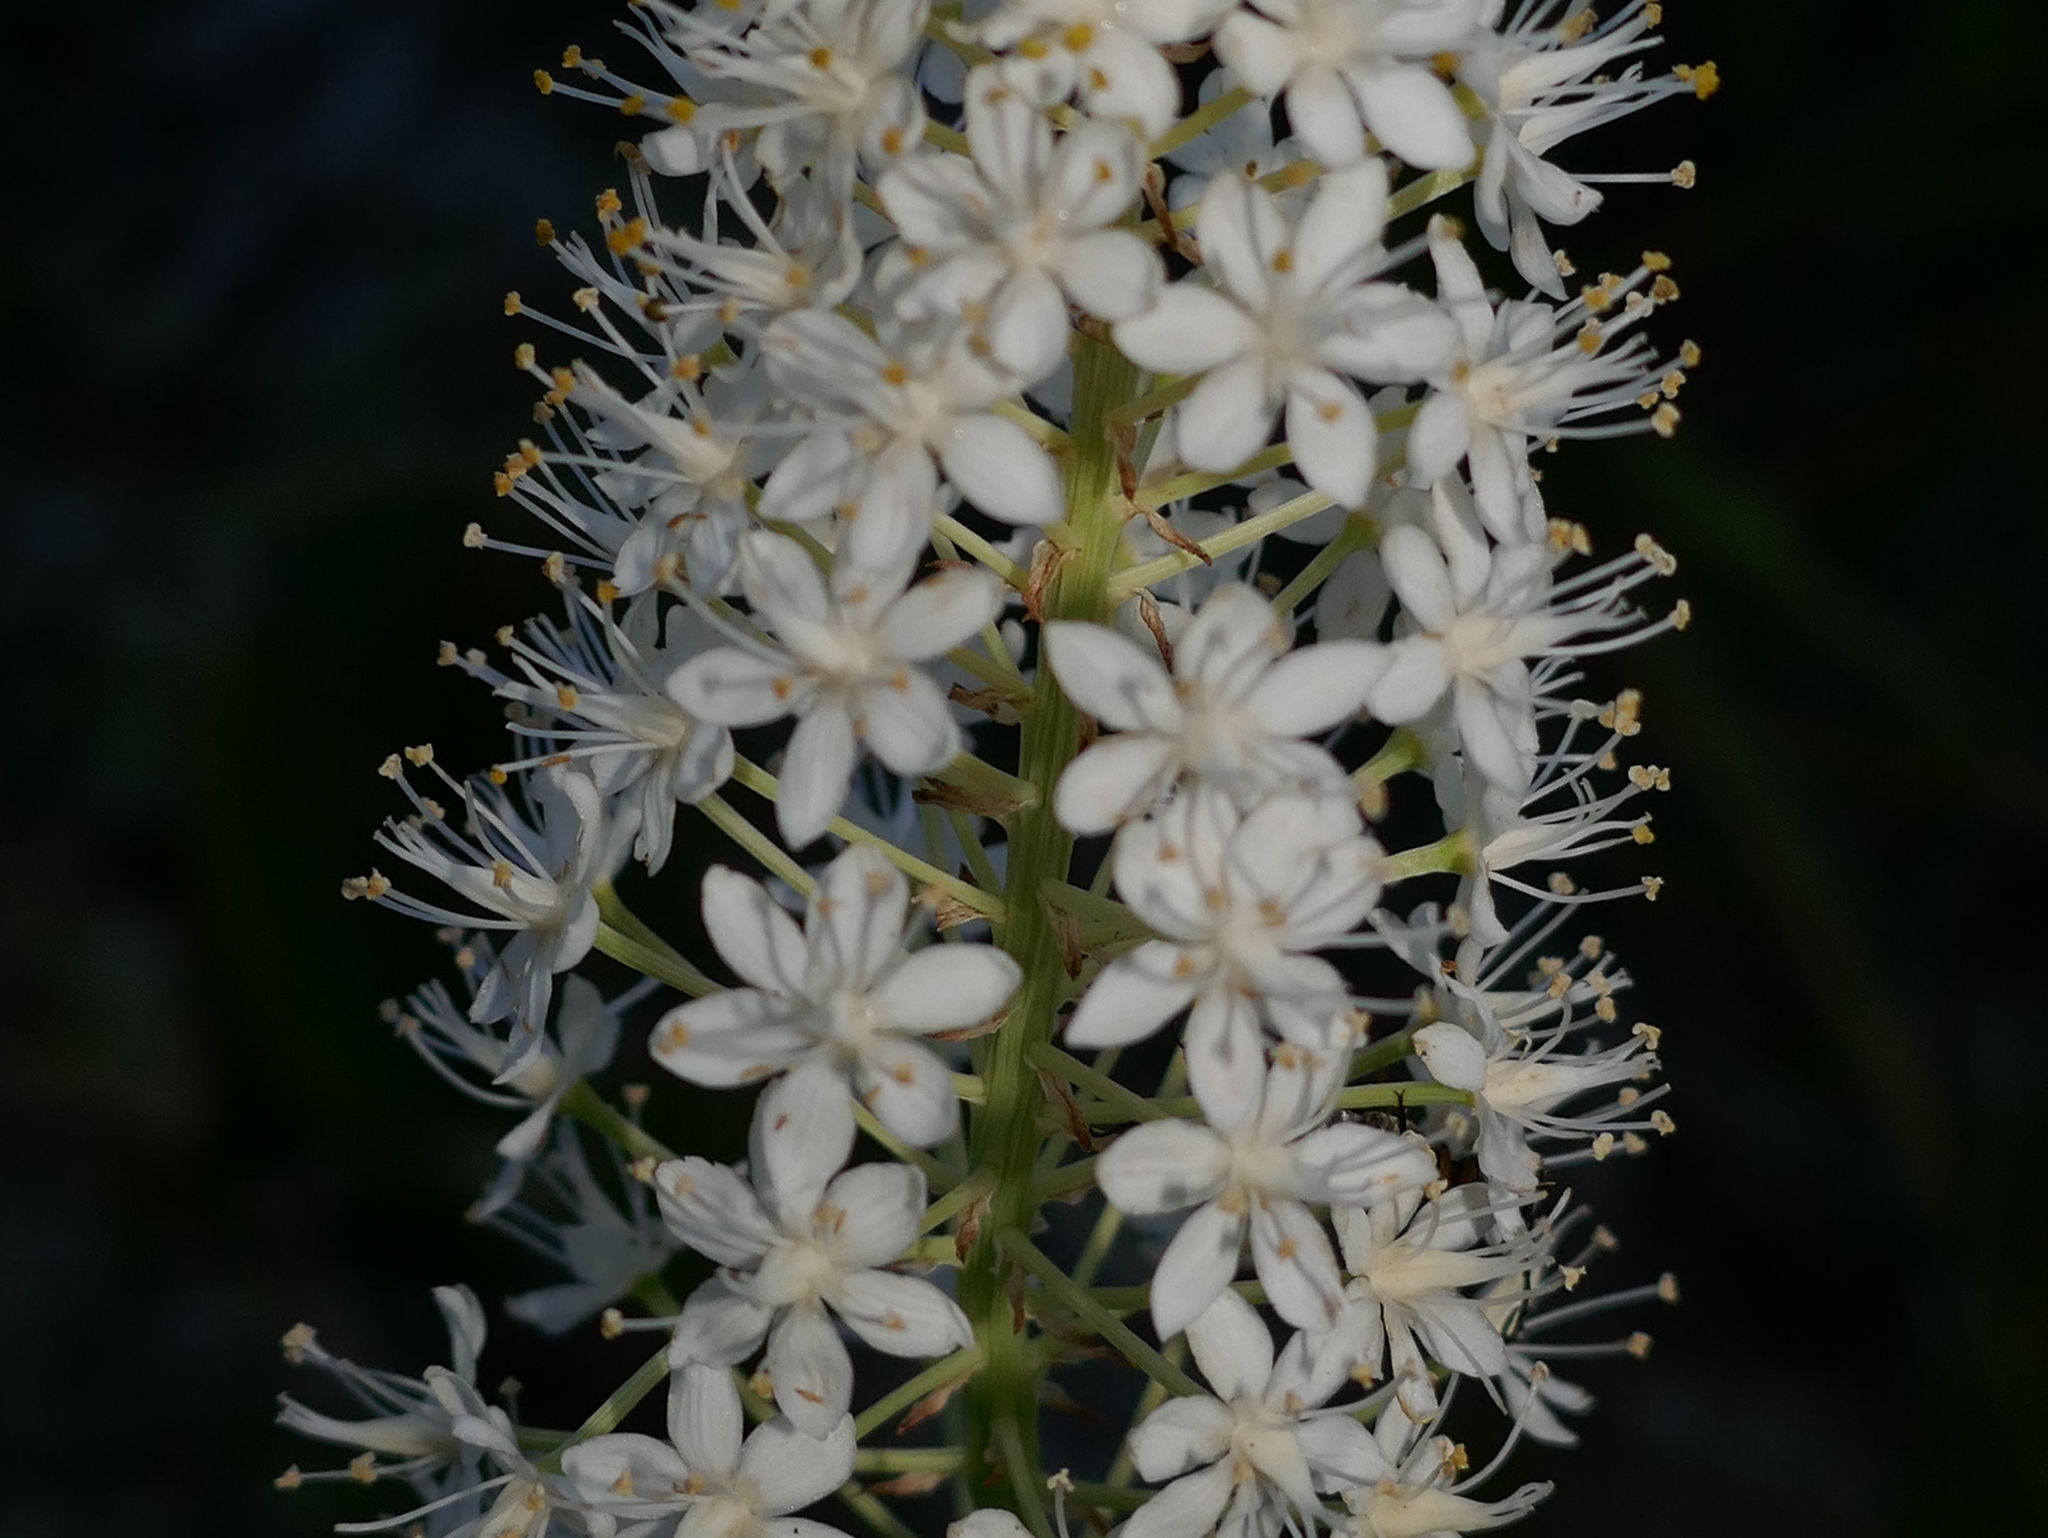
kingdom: Plantae
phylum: Tracheophyta
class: Liliopsida
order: Liliales
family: Melanthiaceae
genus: Stenanthium
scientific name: Stenanthium densum
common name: Crow-poison
